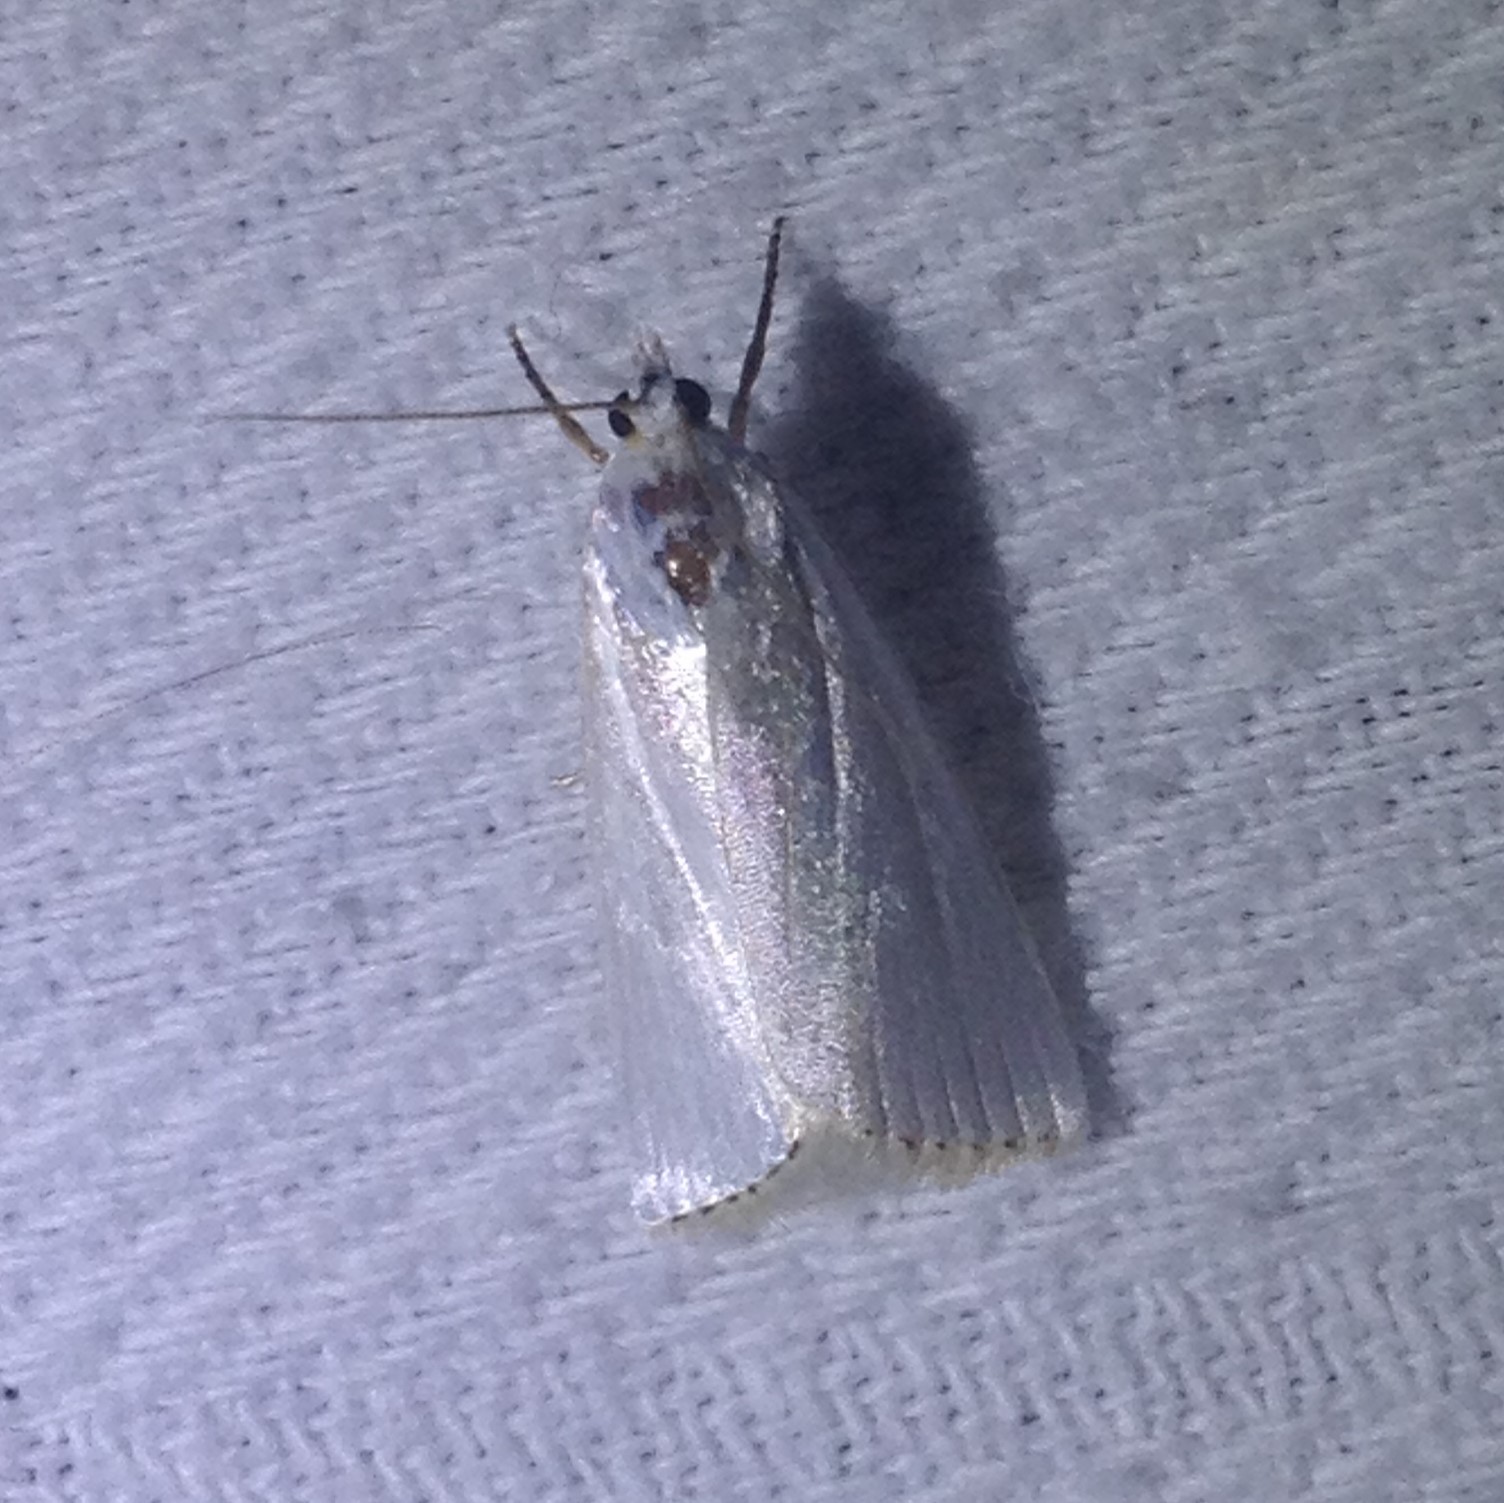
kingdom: Animalia
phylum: Arthropoda
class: Insecta
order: Lepidoptera
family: Crambidae
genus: Argyria
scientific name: Argyria nivalis
